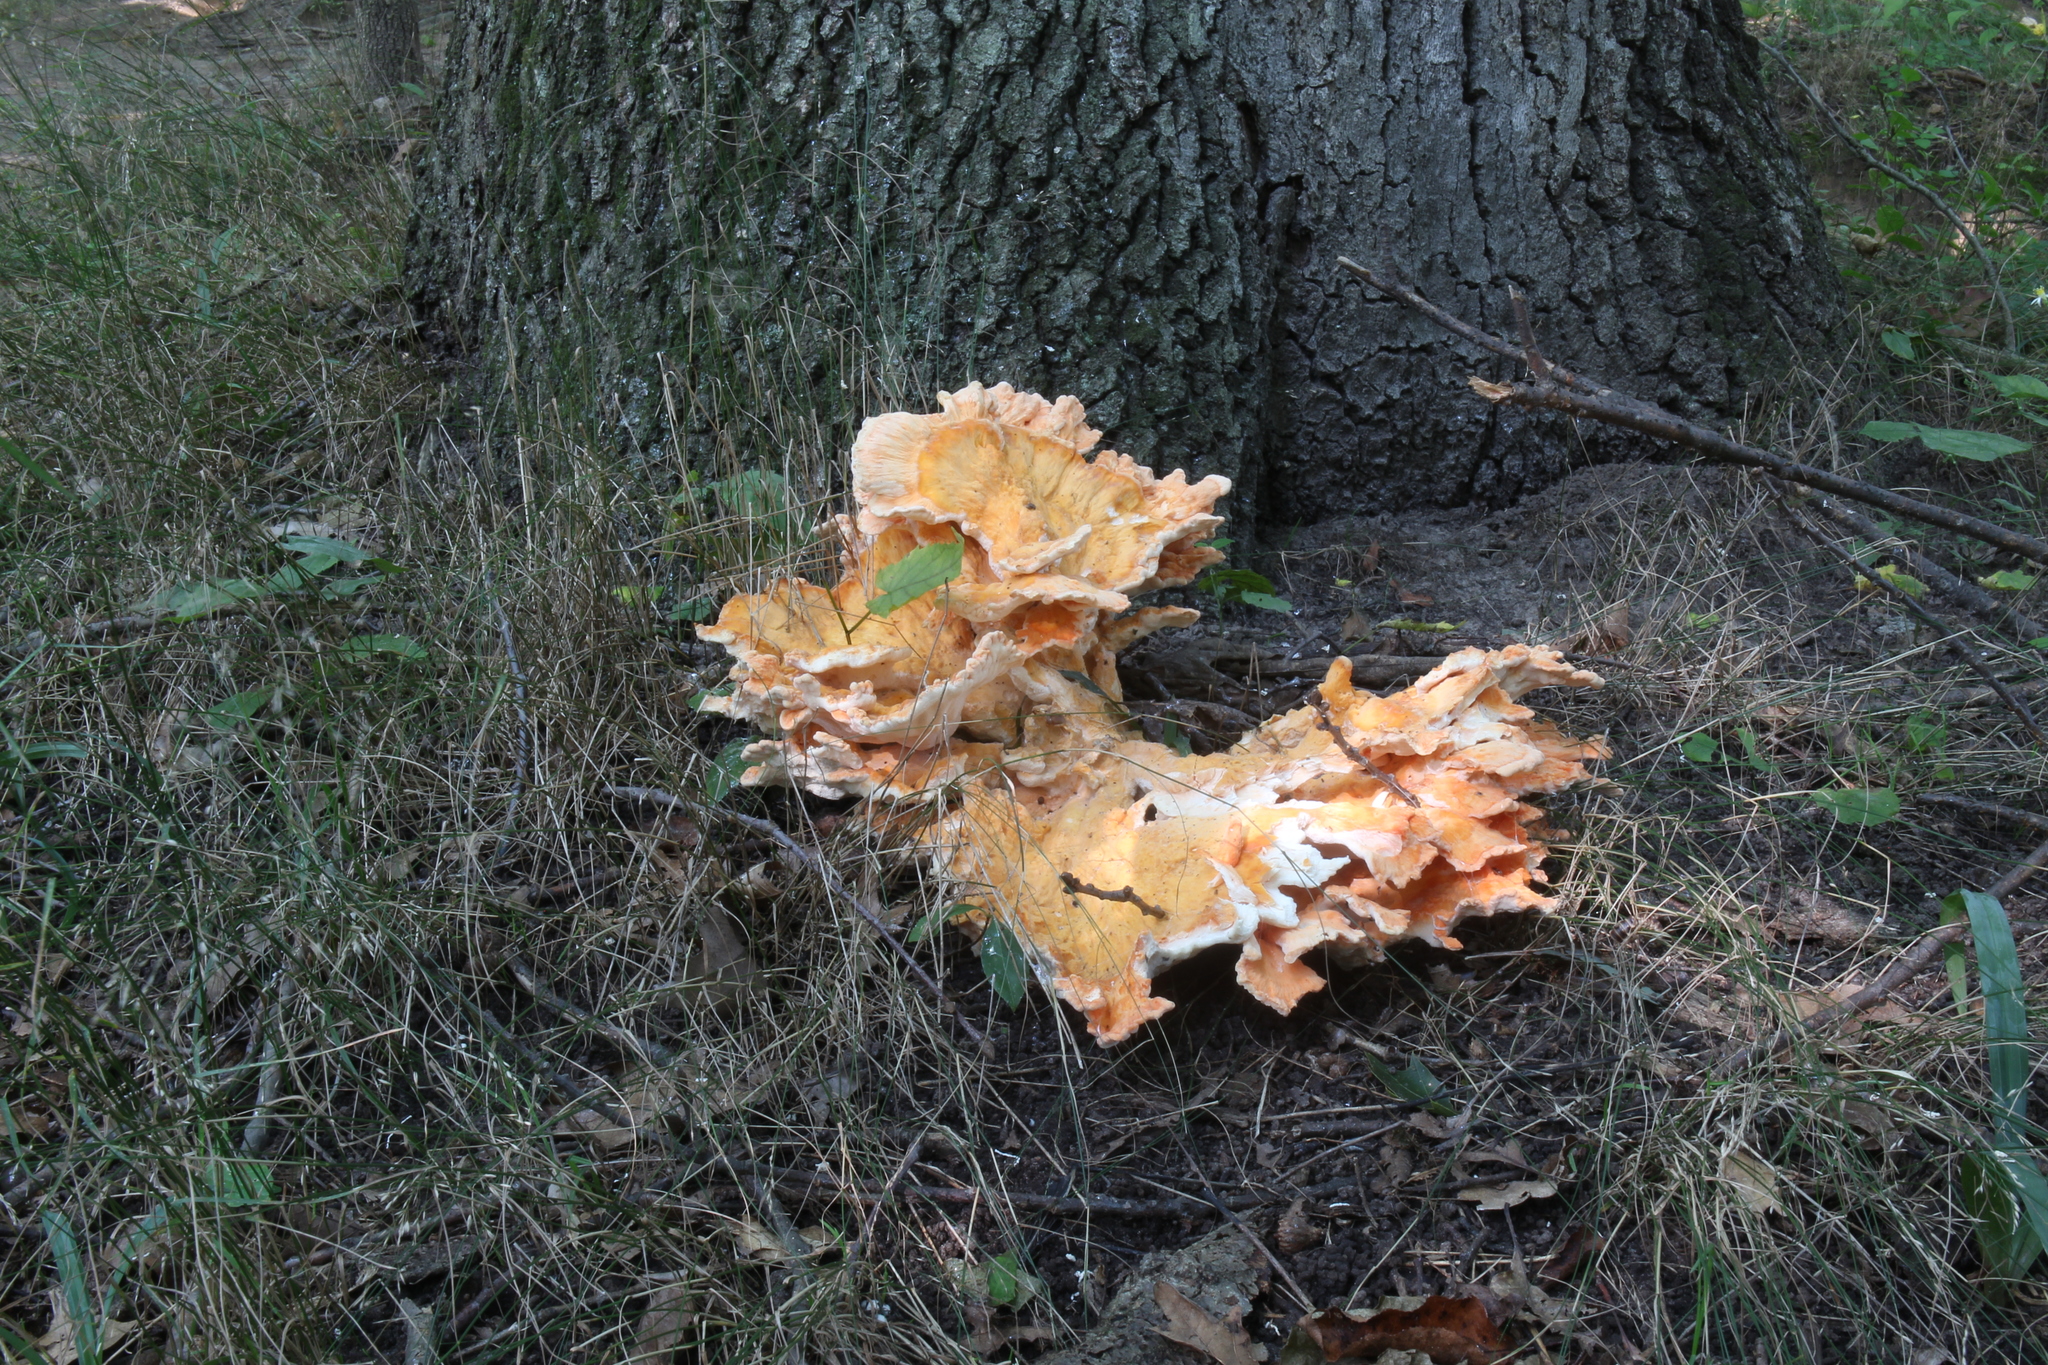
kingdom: Fungi
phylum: Basidiomycota
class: Agaricomycetes
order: Polyporales
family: Laetiporaceae
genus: Laetiporus
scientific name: Laetiporus sulphureus
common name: Chicken of the woods
